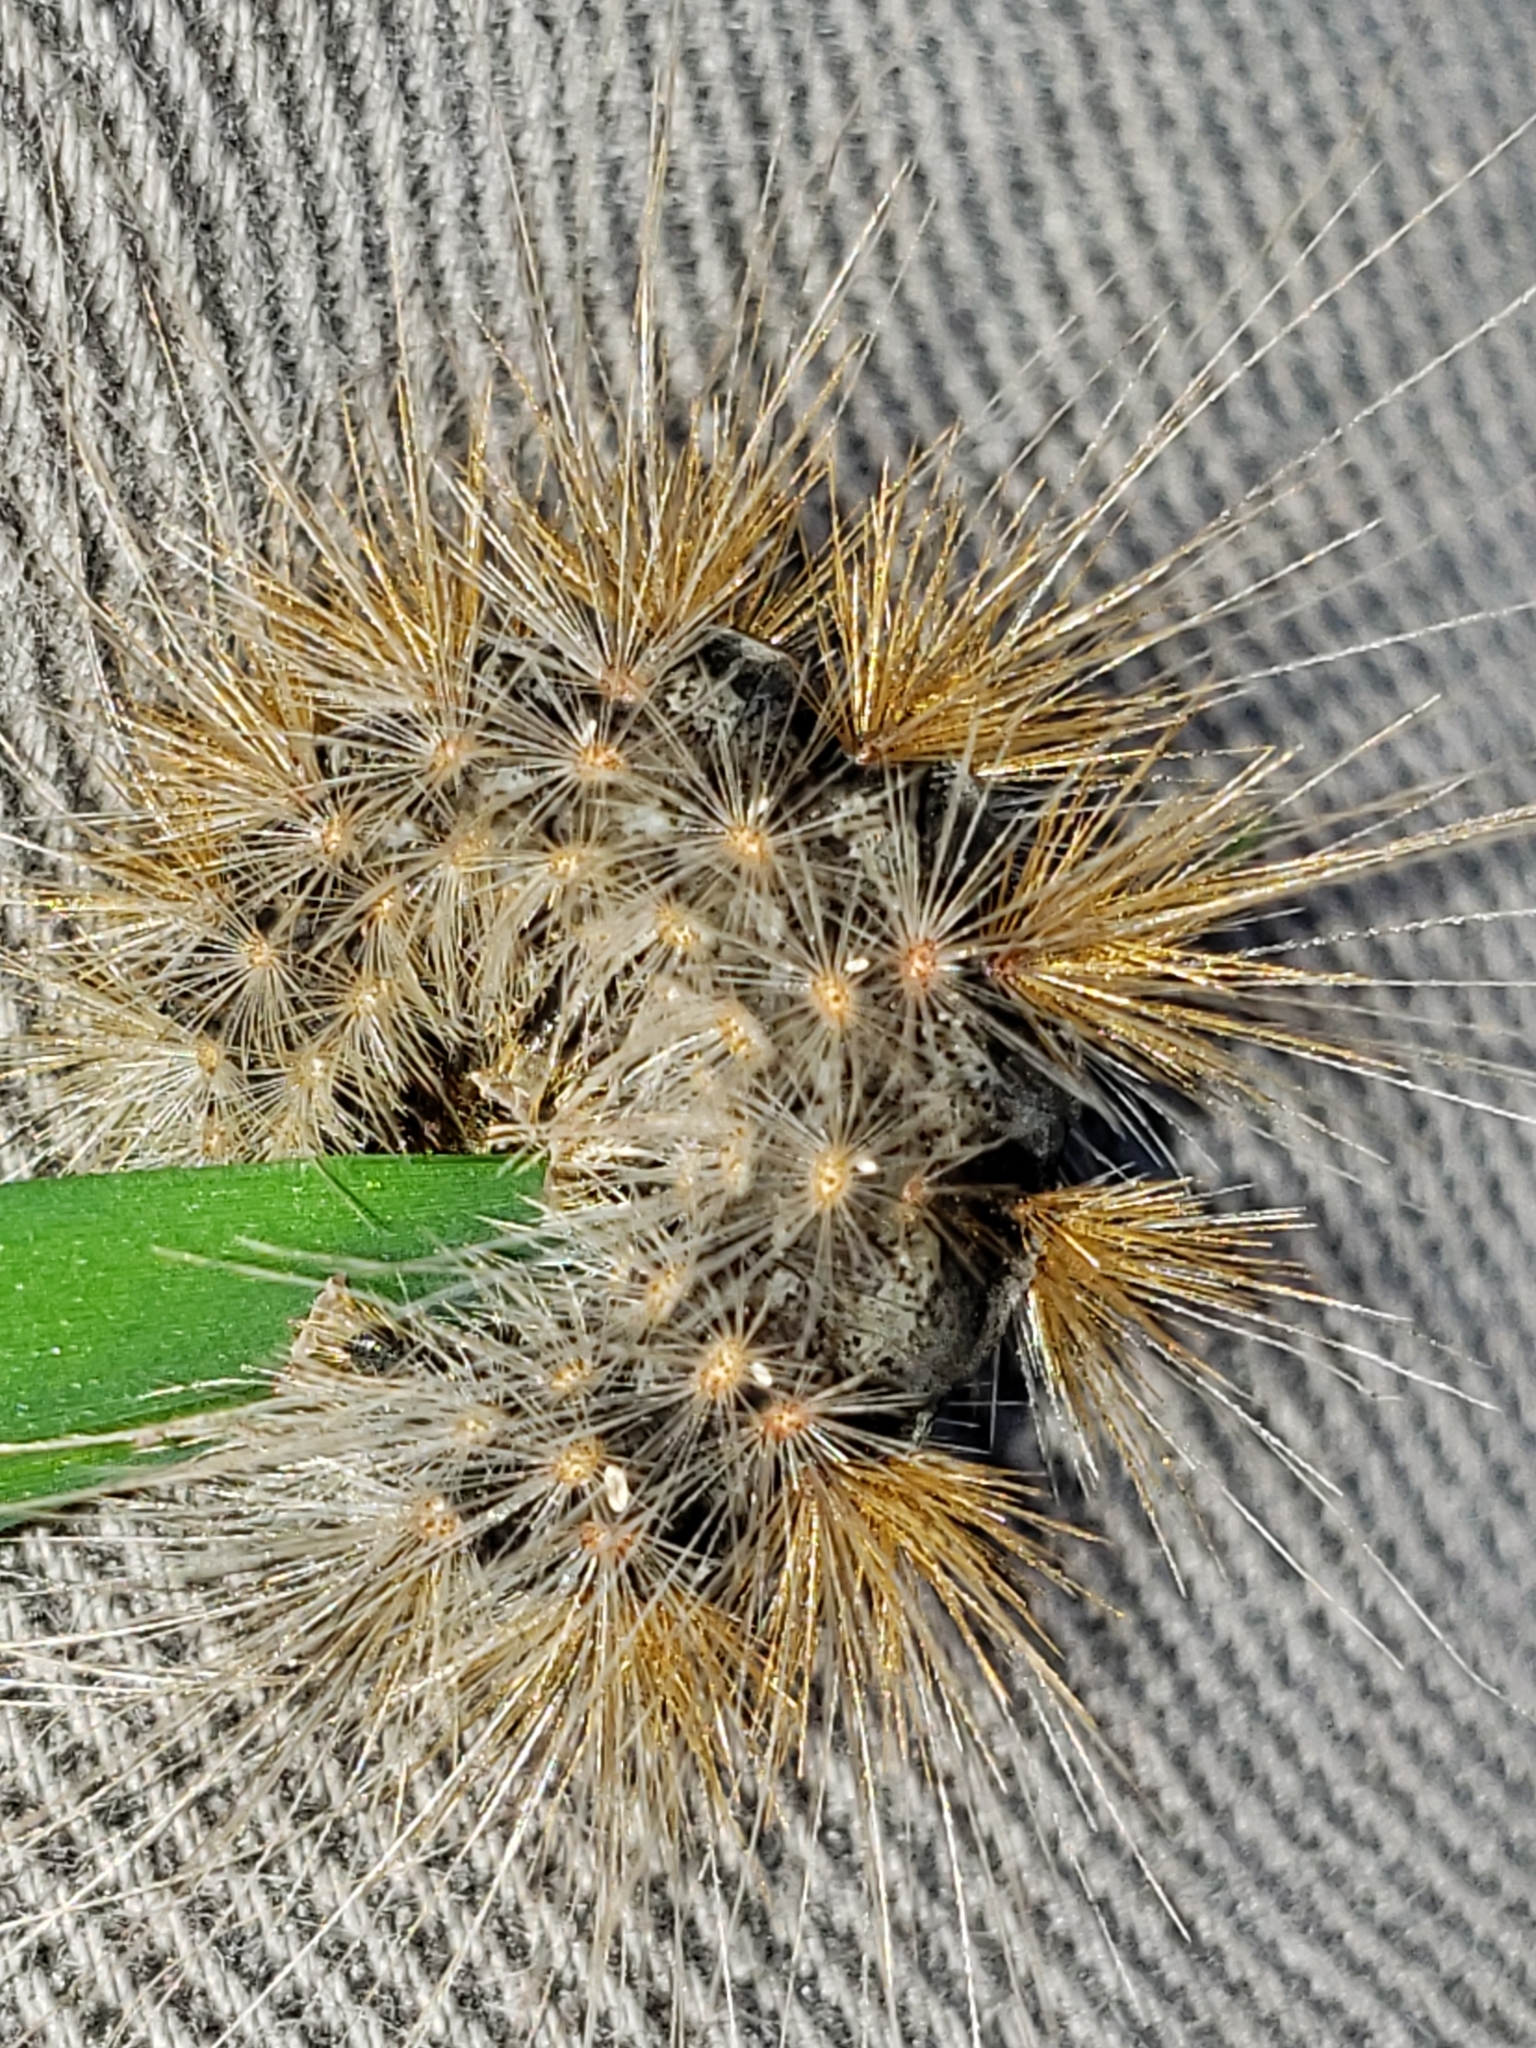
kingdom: Animalia
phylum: Arthropoda
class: Insecta
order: Lepidoptera
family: Erebidae
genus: Hyphantria
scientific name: Hyphantria cunea
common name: American white moth
